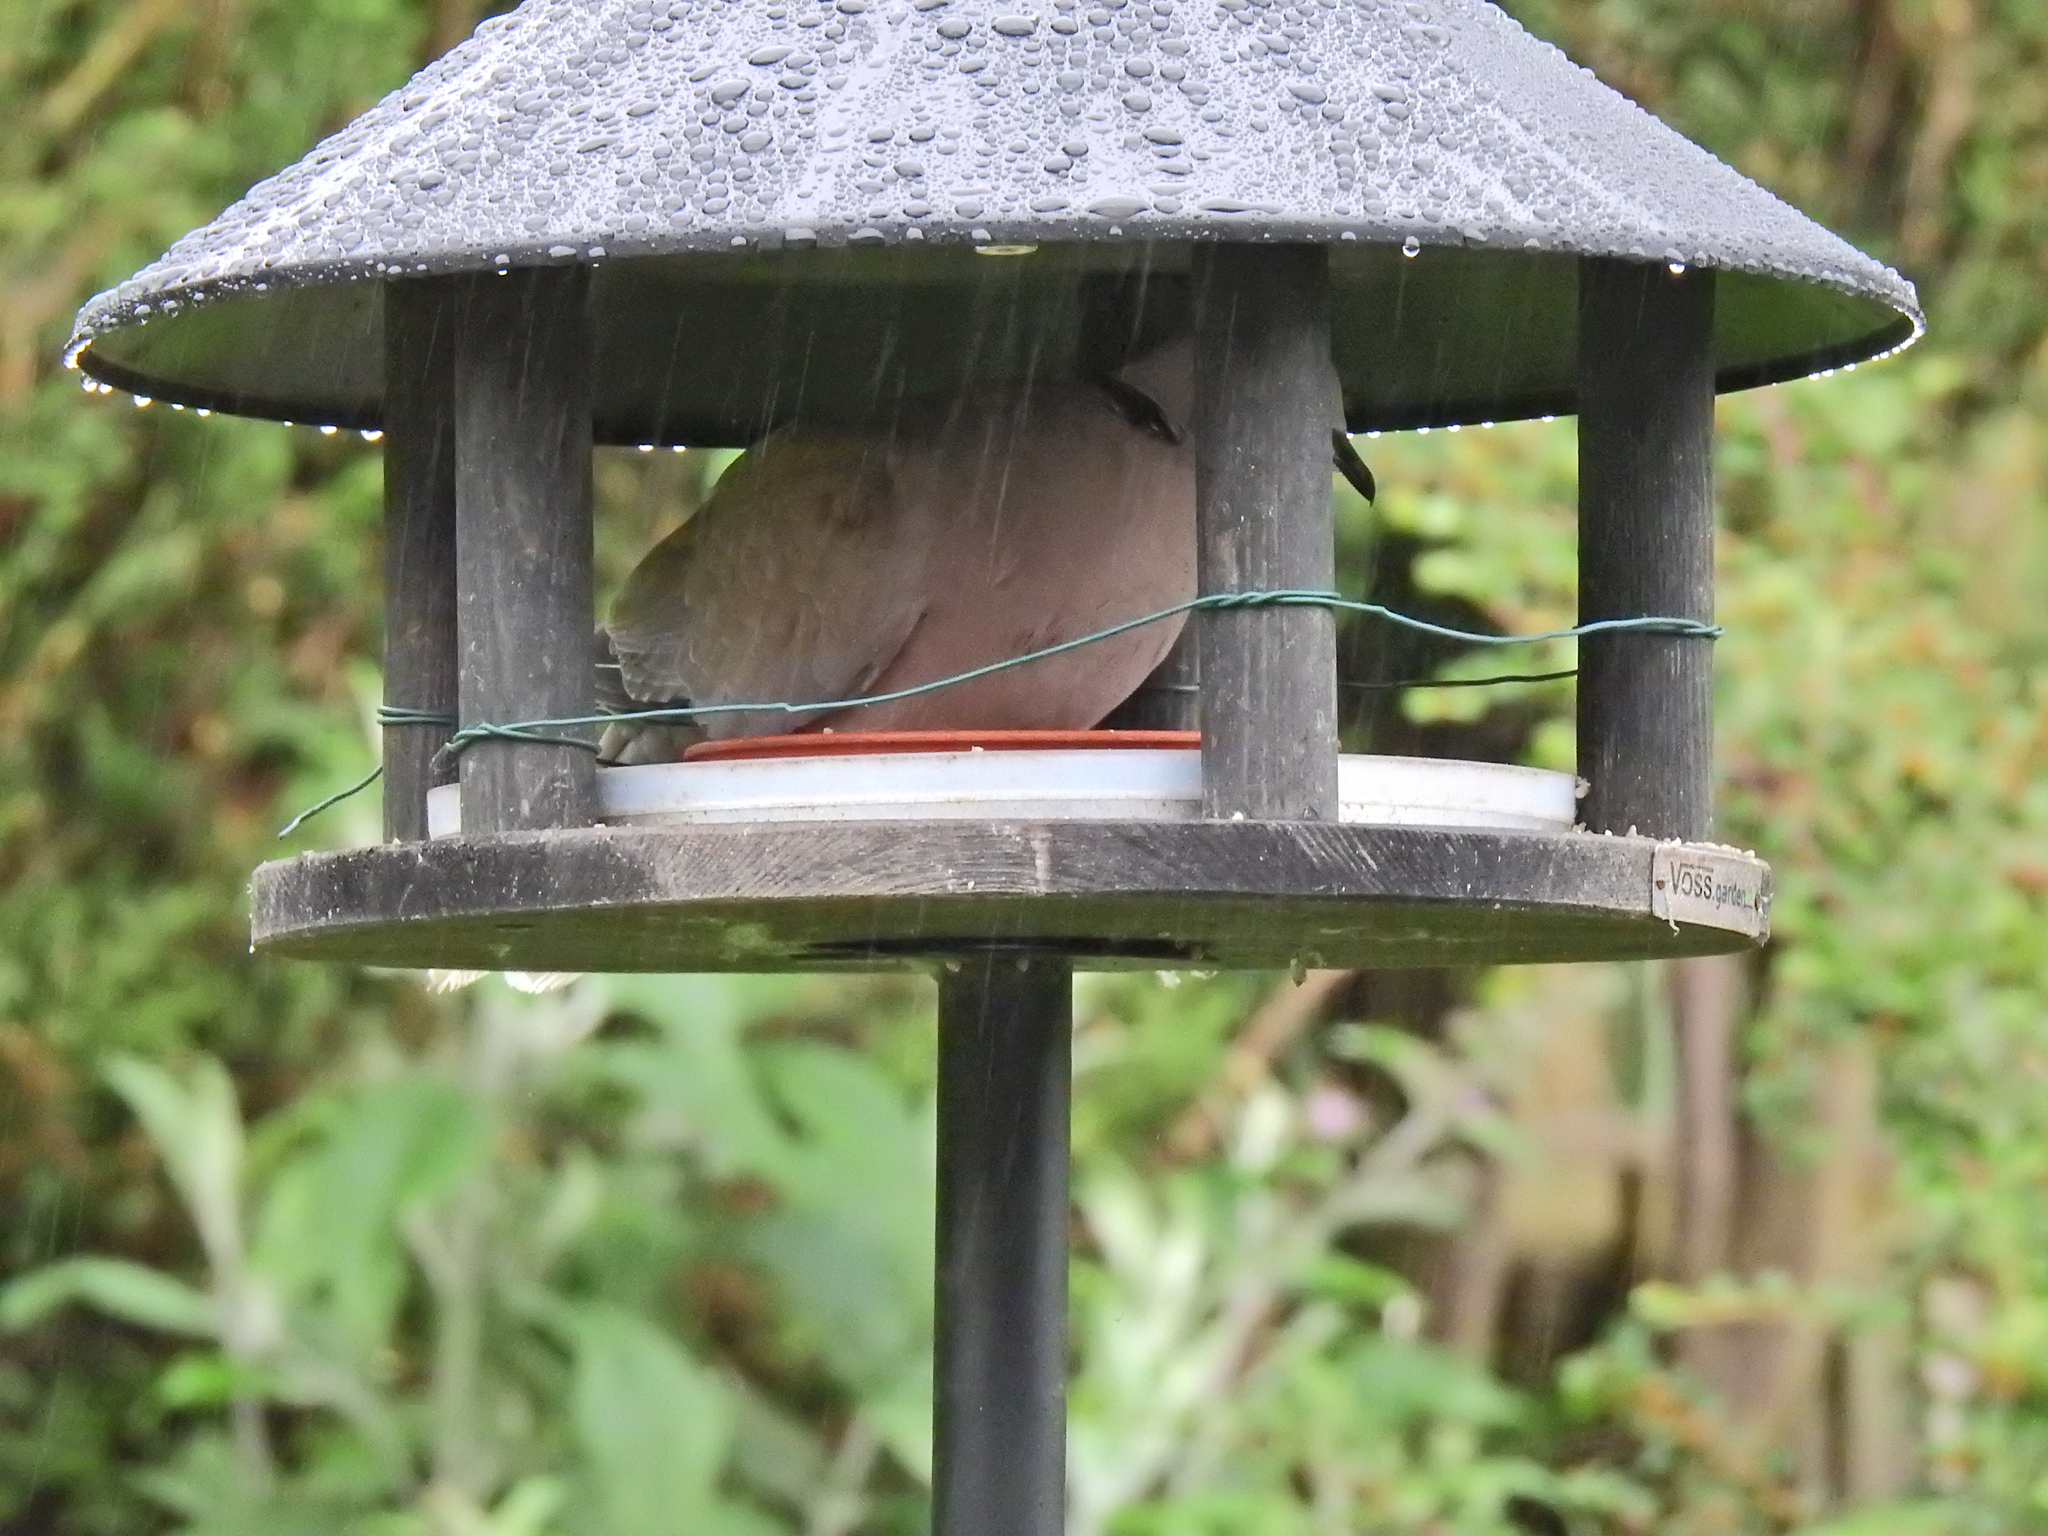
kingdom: Animalia
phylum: Chordata
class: Aves
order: Columbiformes
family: Columbidae
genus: Streptopelia
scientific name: Streptopelia decaocto
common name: Eurasian collared dove
